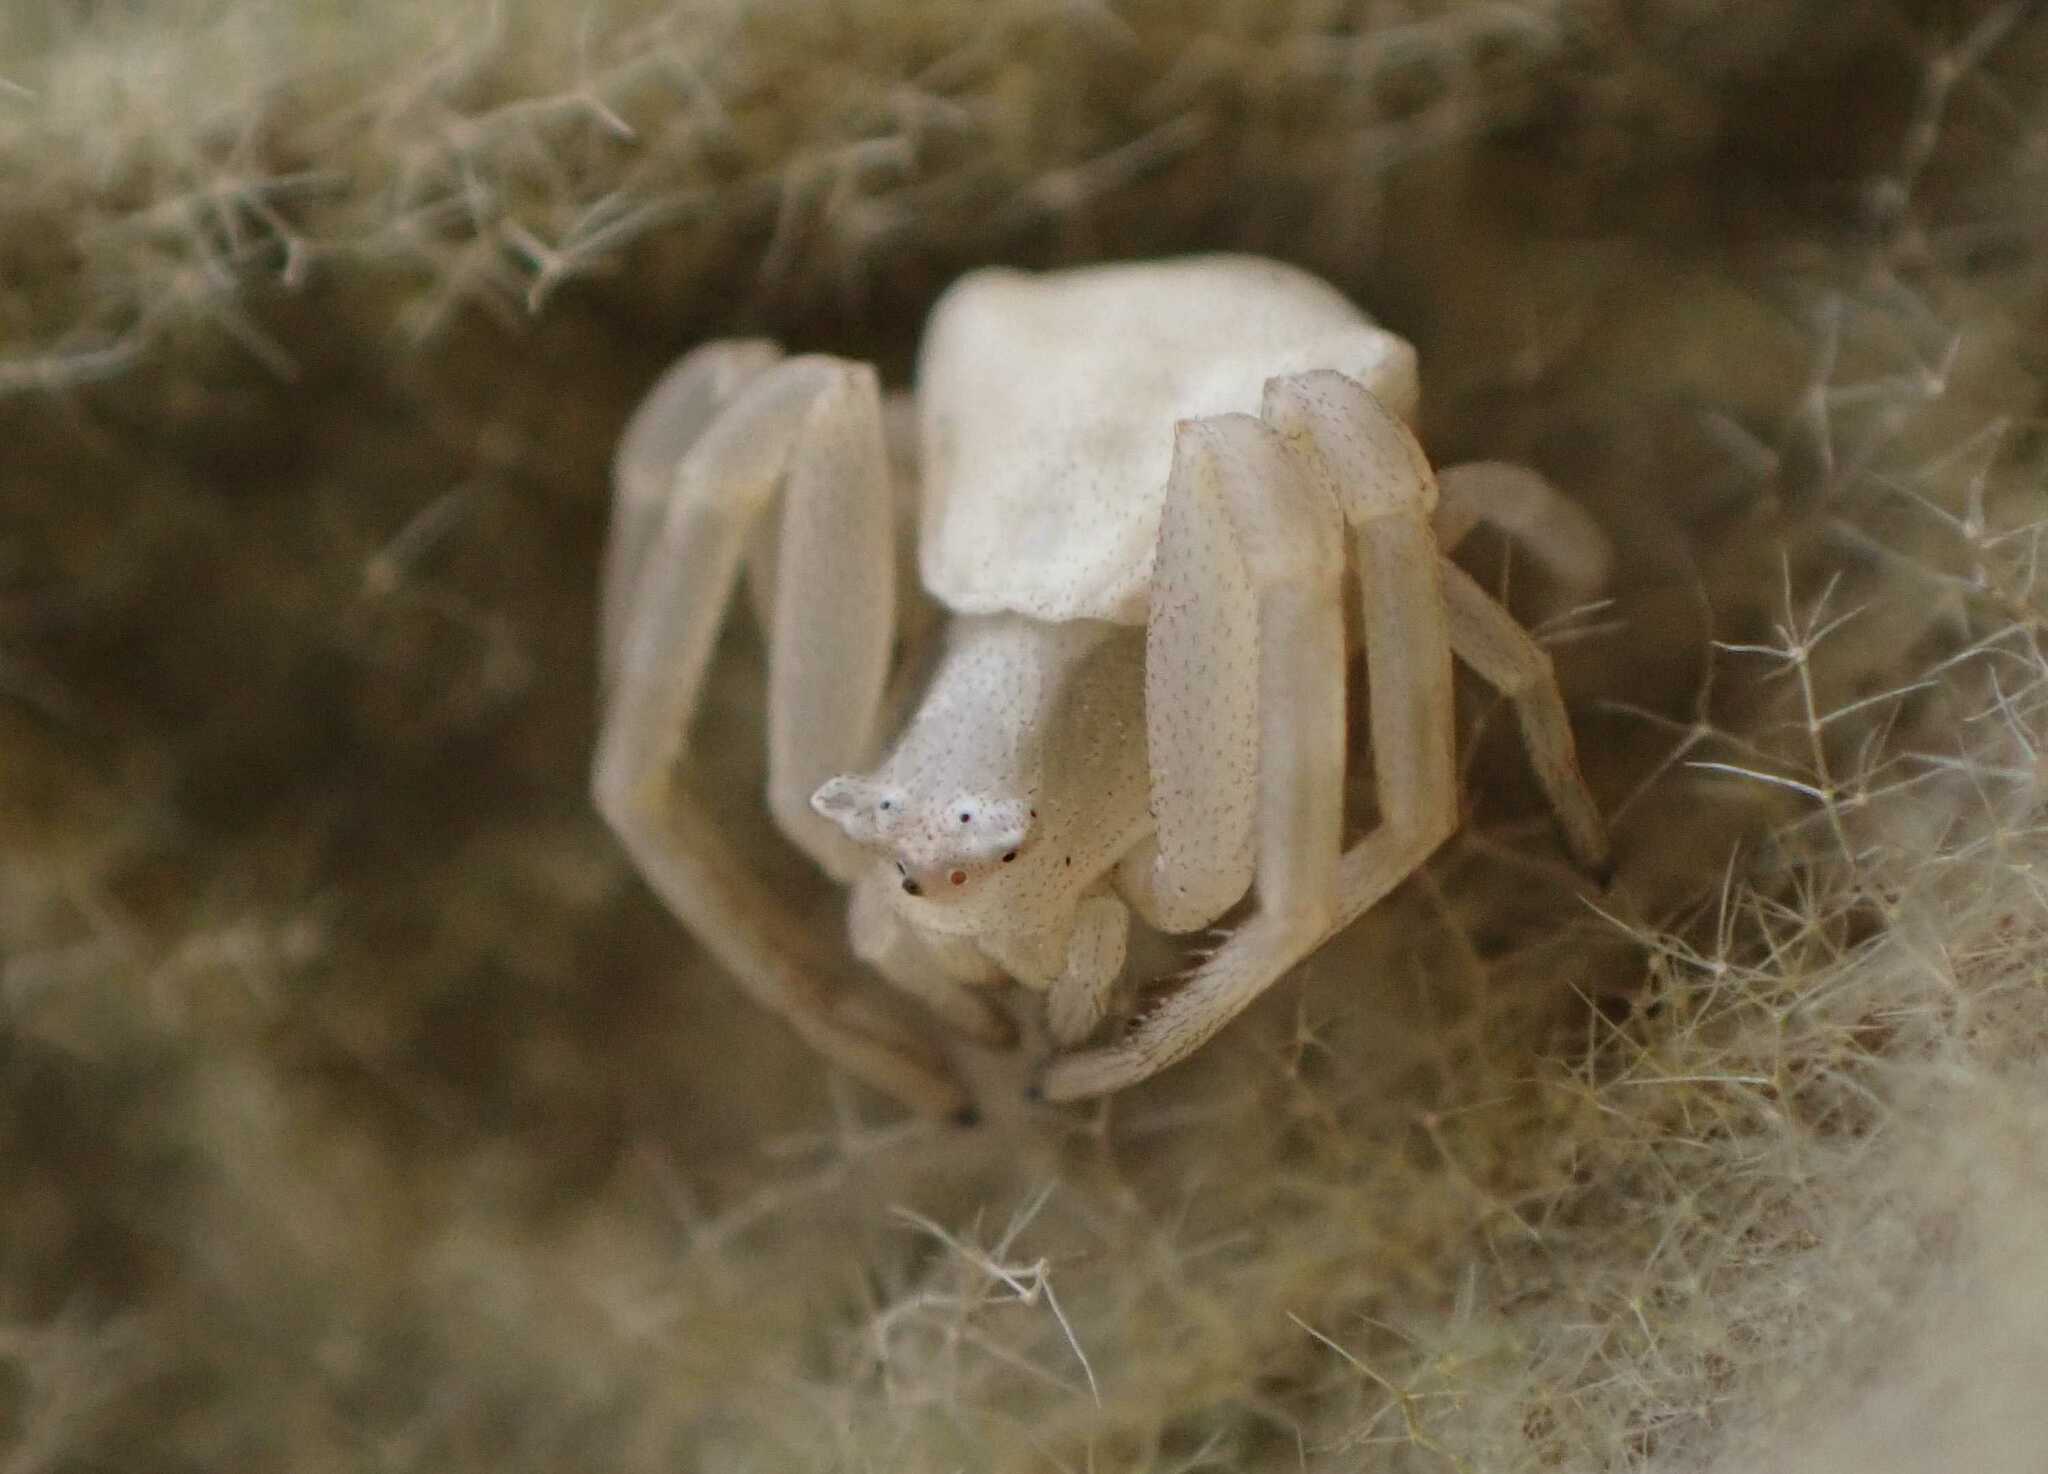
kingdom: Animalia
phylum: Arthropoda
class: Arachnida
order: Araneae
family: Thomisidae
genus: Thomisus
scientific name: Thomisus onustus
